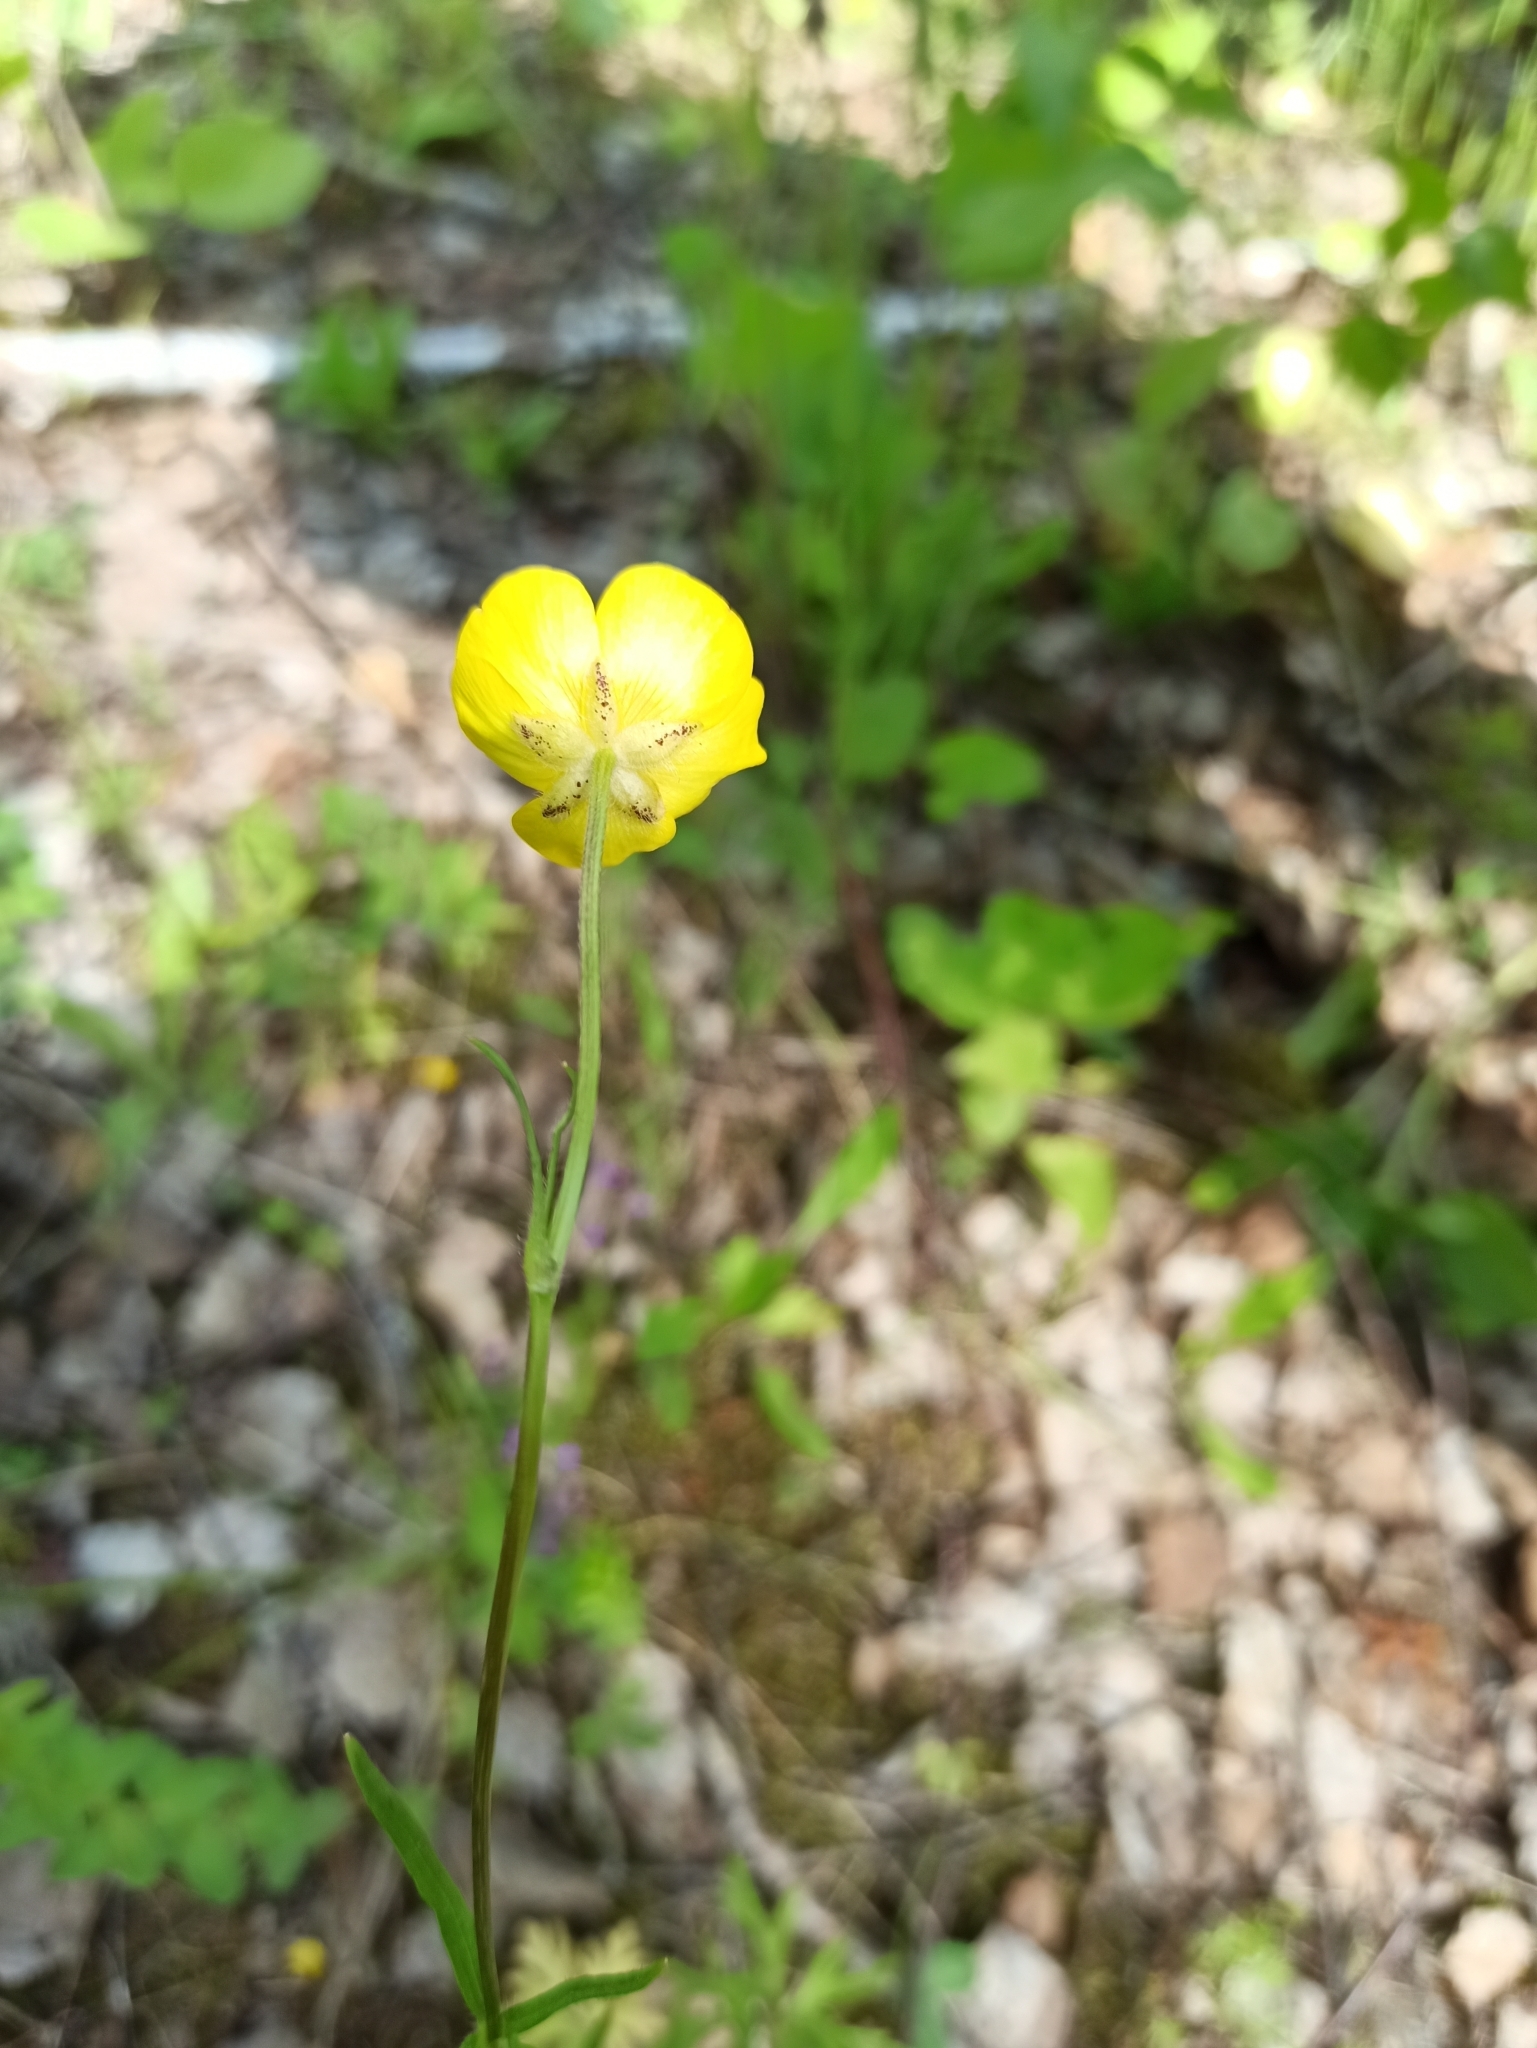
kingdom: Plantae
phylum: Tracheophyta
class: Magnoliopsida
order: Ranunculales
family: Ranunculaceae
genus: Ranunculus
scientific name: Ranunculus polyanthemos
